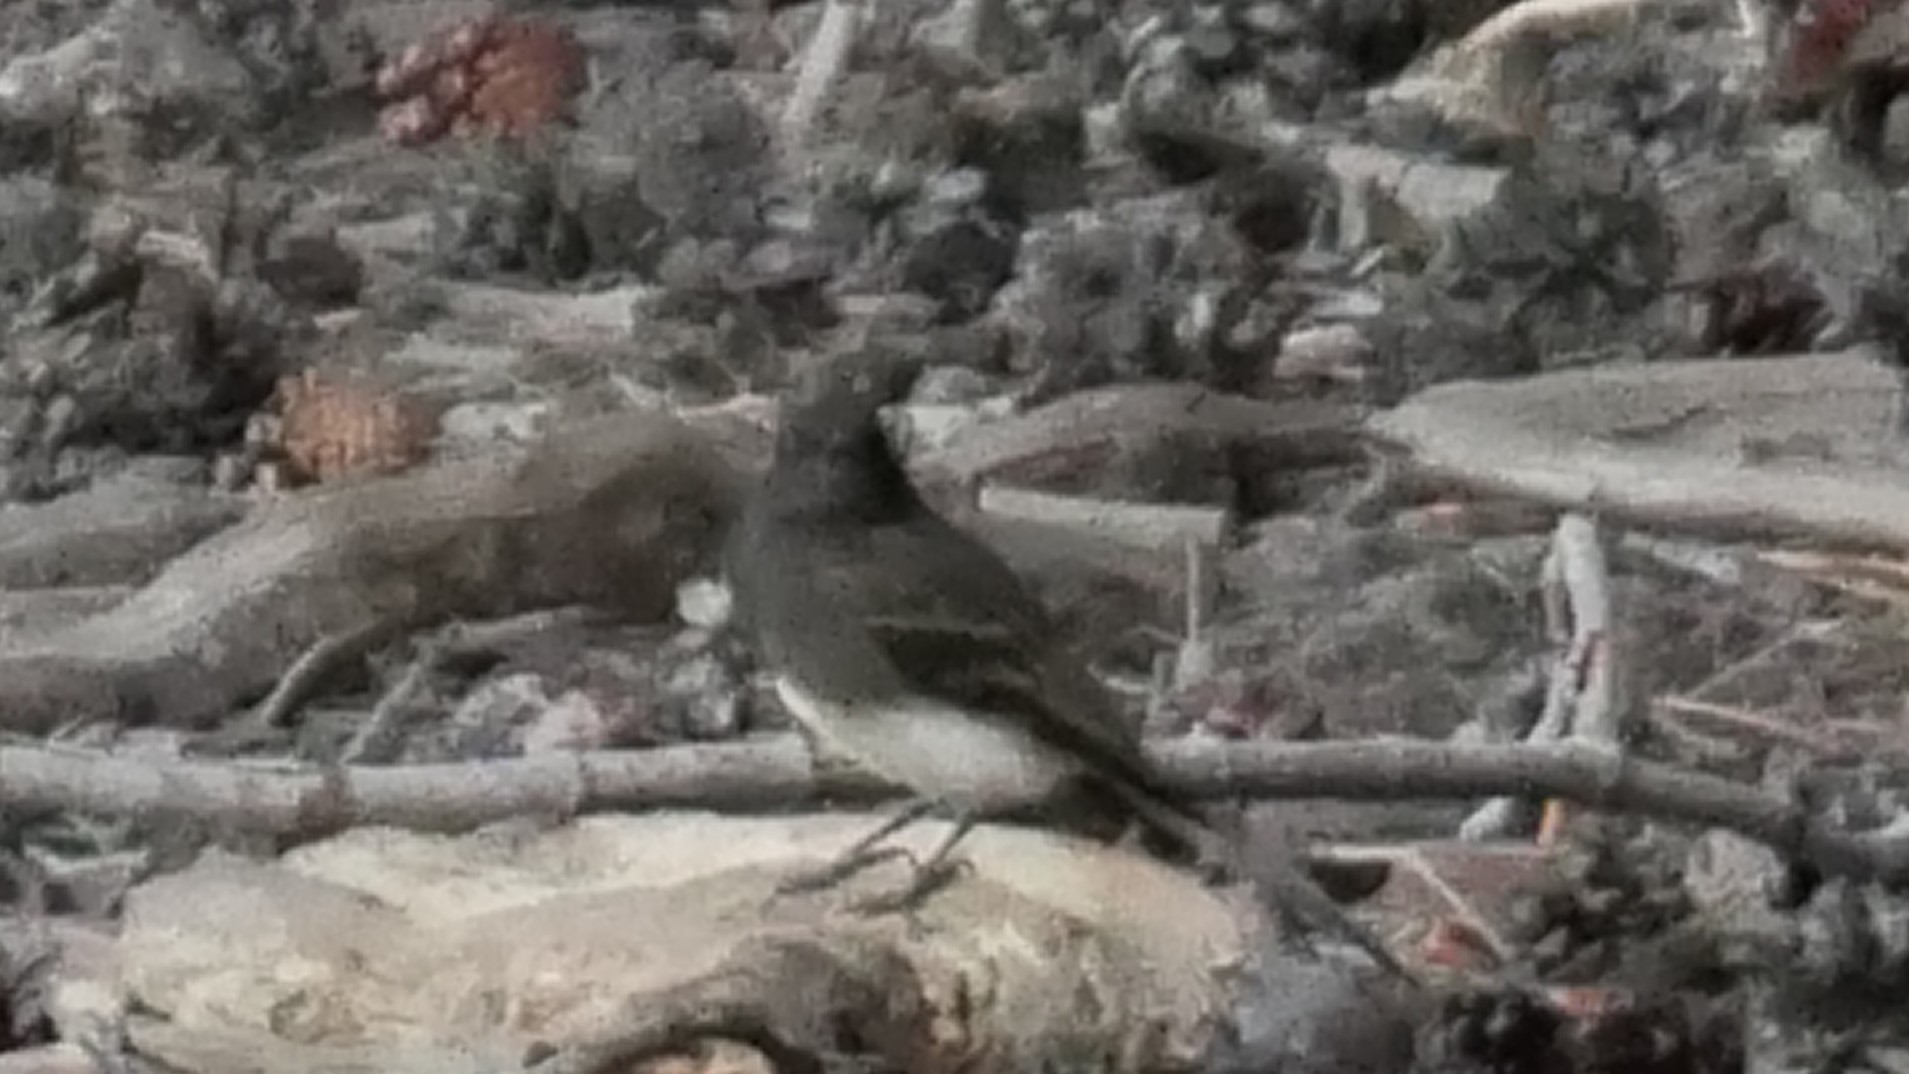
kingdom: Animalia
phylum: Chordata
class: Aves
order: Passeriformes
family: Tyrannidae
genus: Sayornis
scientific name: Sayornis nigricans
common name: Black phoebe
